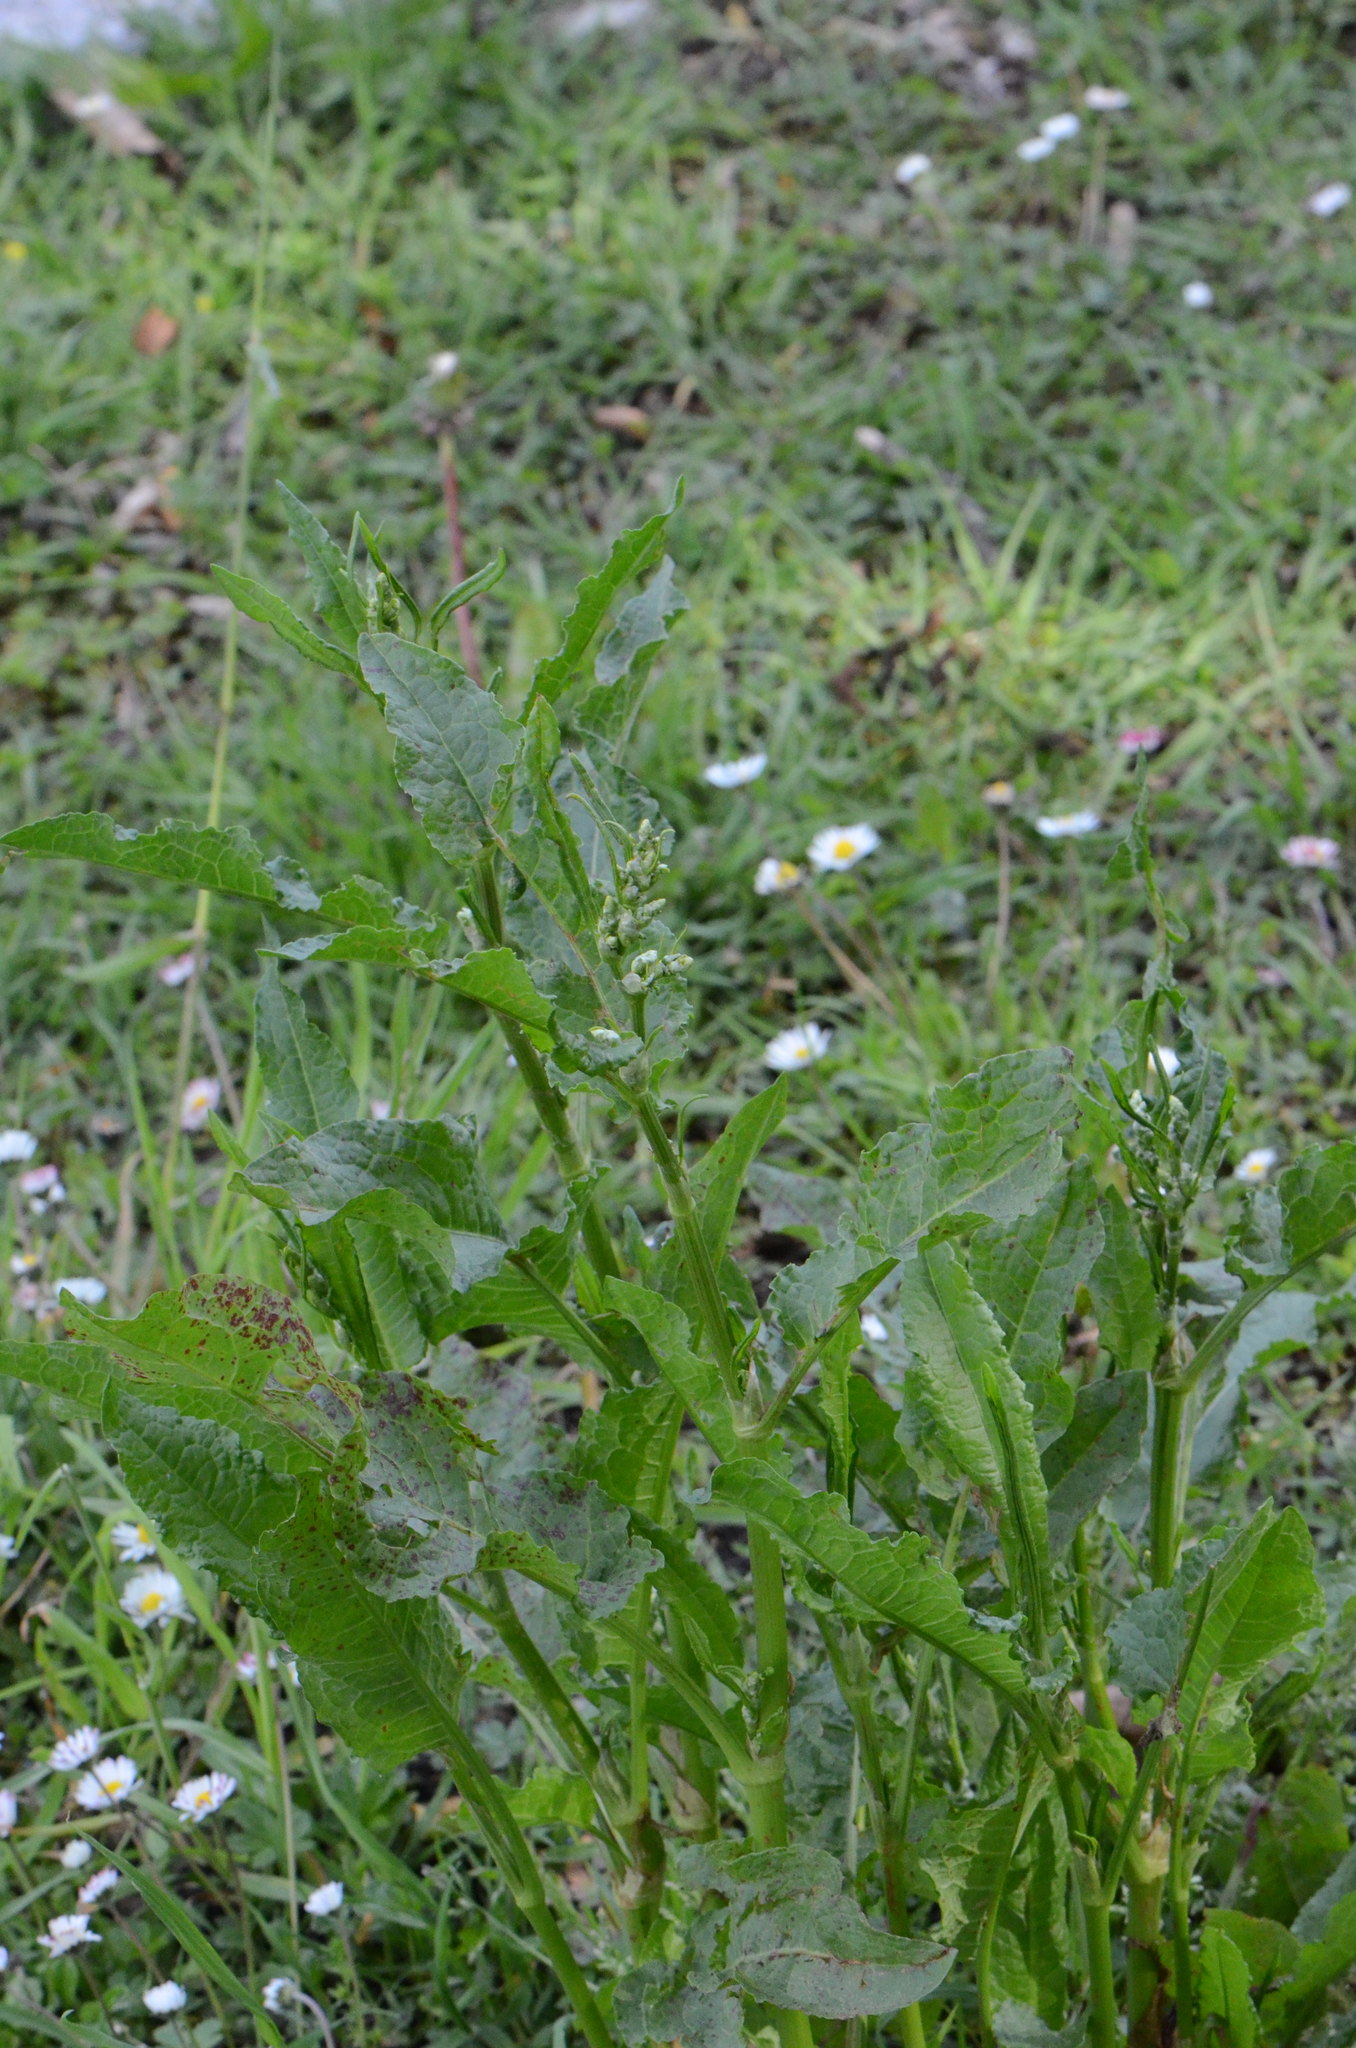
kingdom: Plantae
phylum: Tracheophyta
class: Magnoliopsida
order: Caryophyllales
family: Polygonaceae
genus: Rumex
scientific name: Rumex crispus
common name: Curled dock
